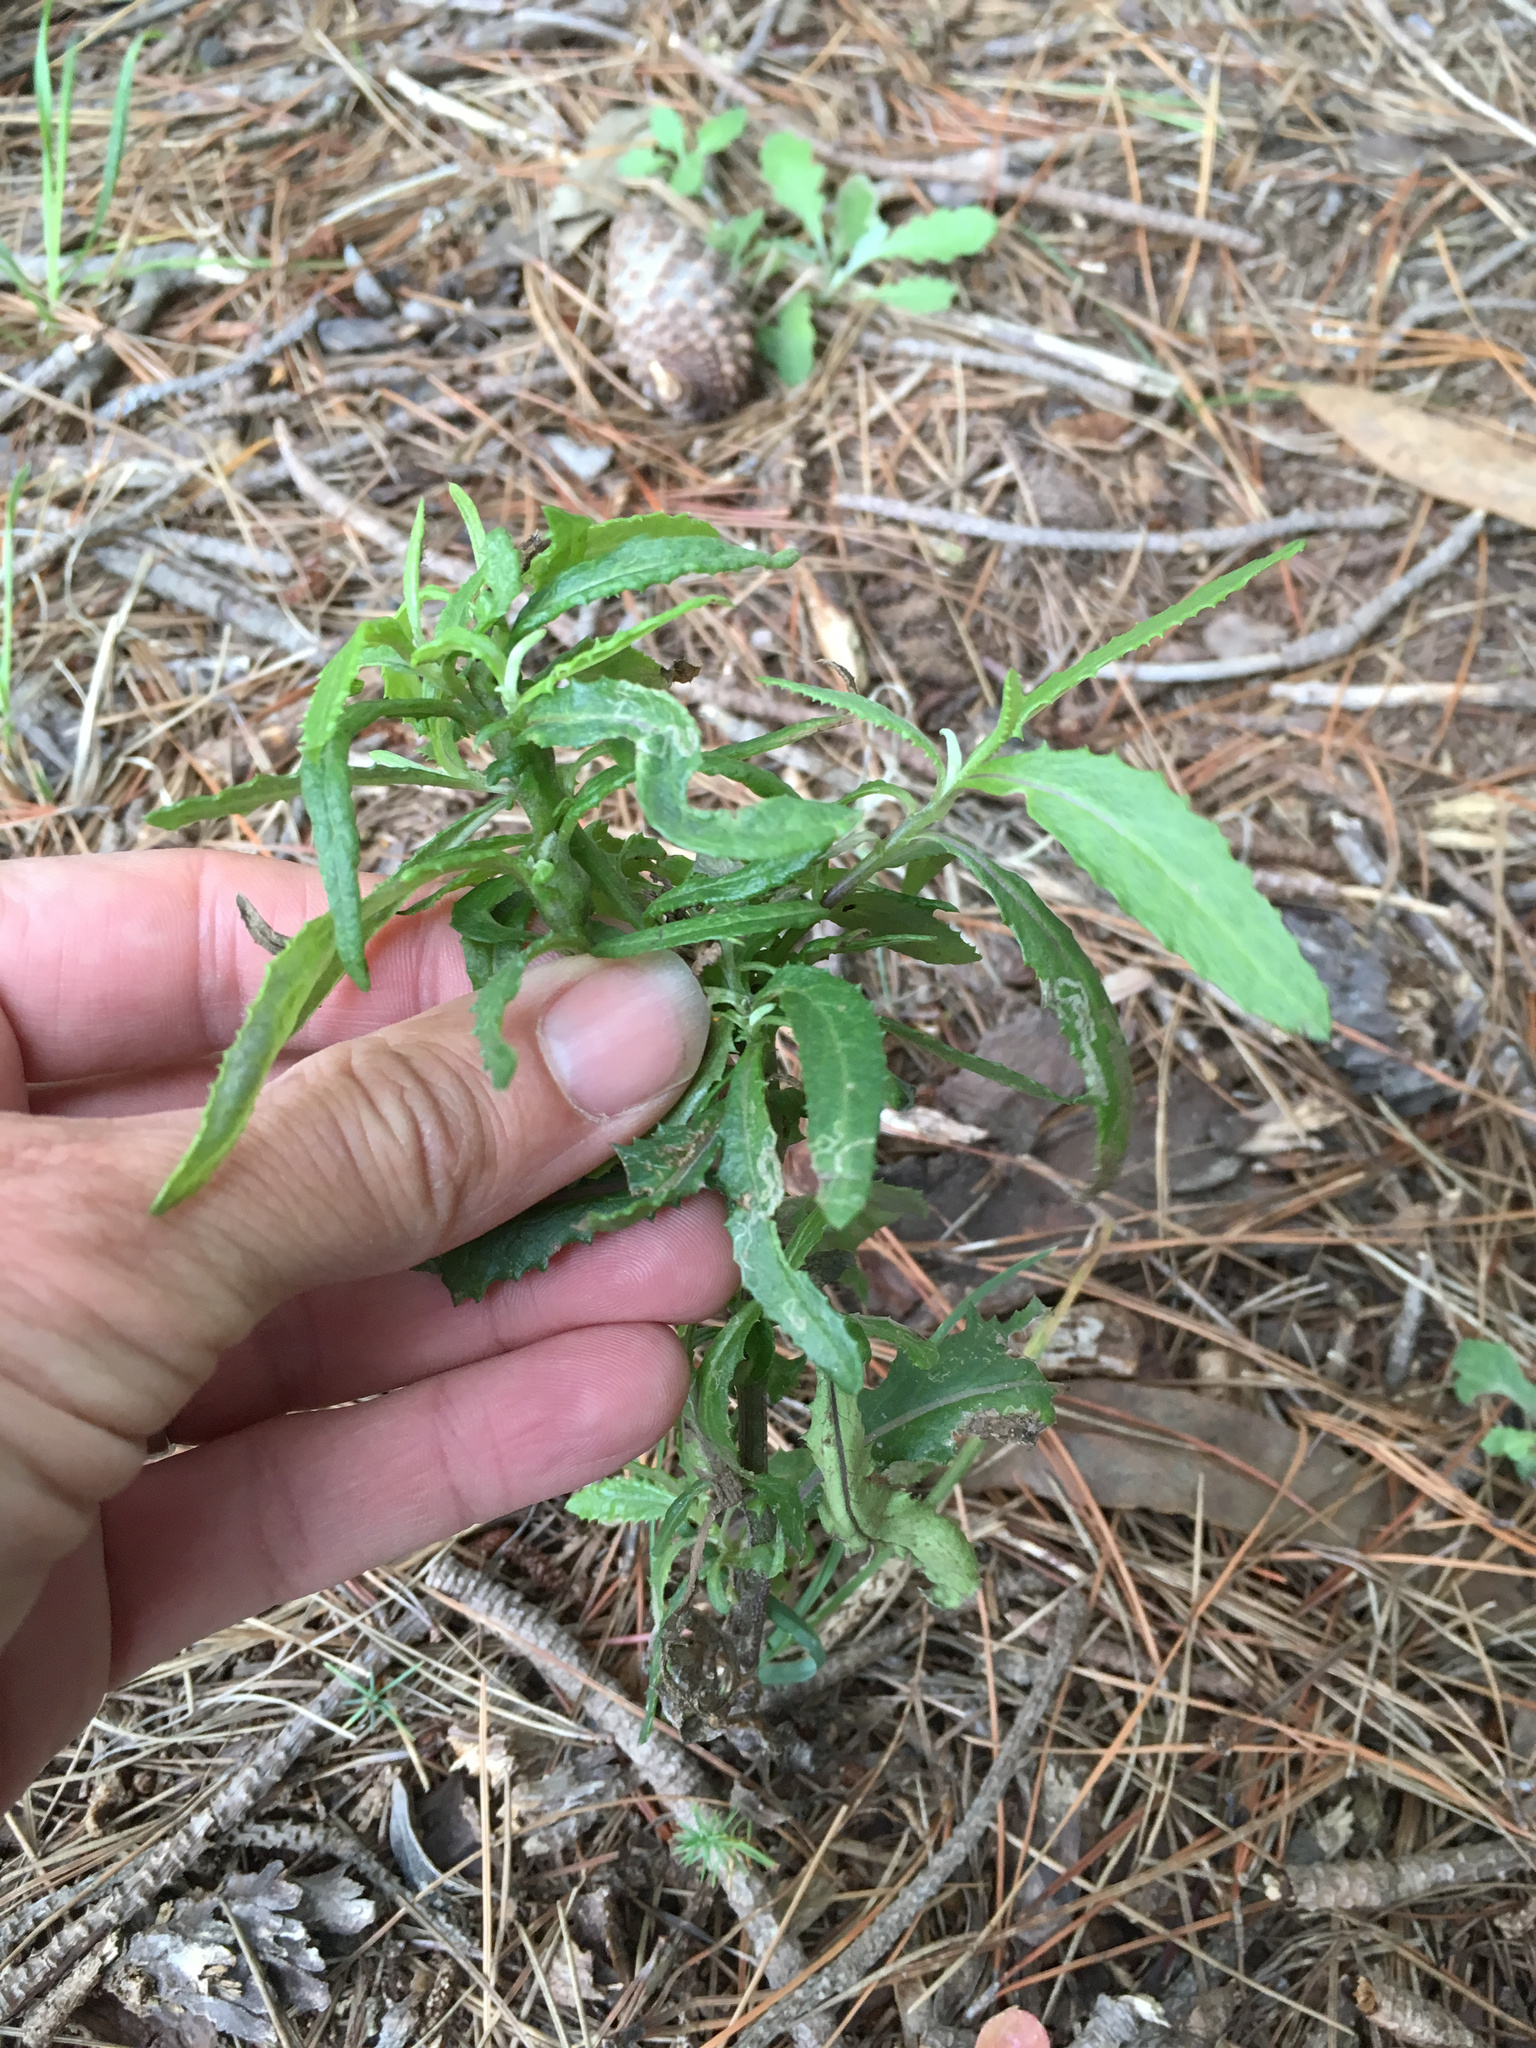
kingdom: Plantae
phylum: Tracheophyta
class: Magnoliopsida
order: Asterales
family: Asteraceae
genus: Senecio
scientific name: Senecio minimus
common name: Toothed fireweed
